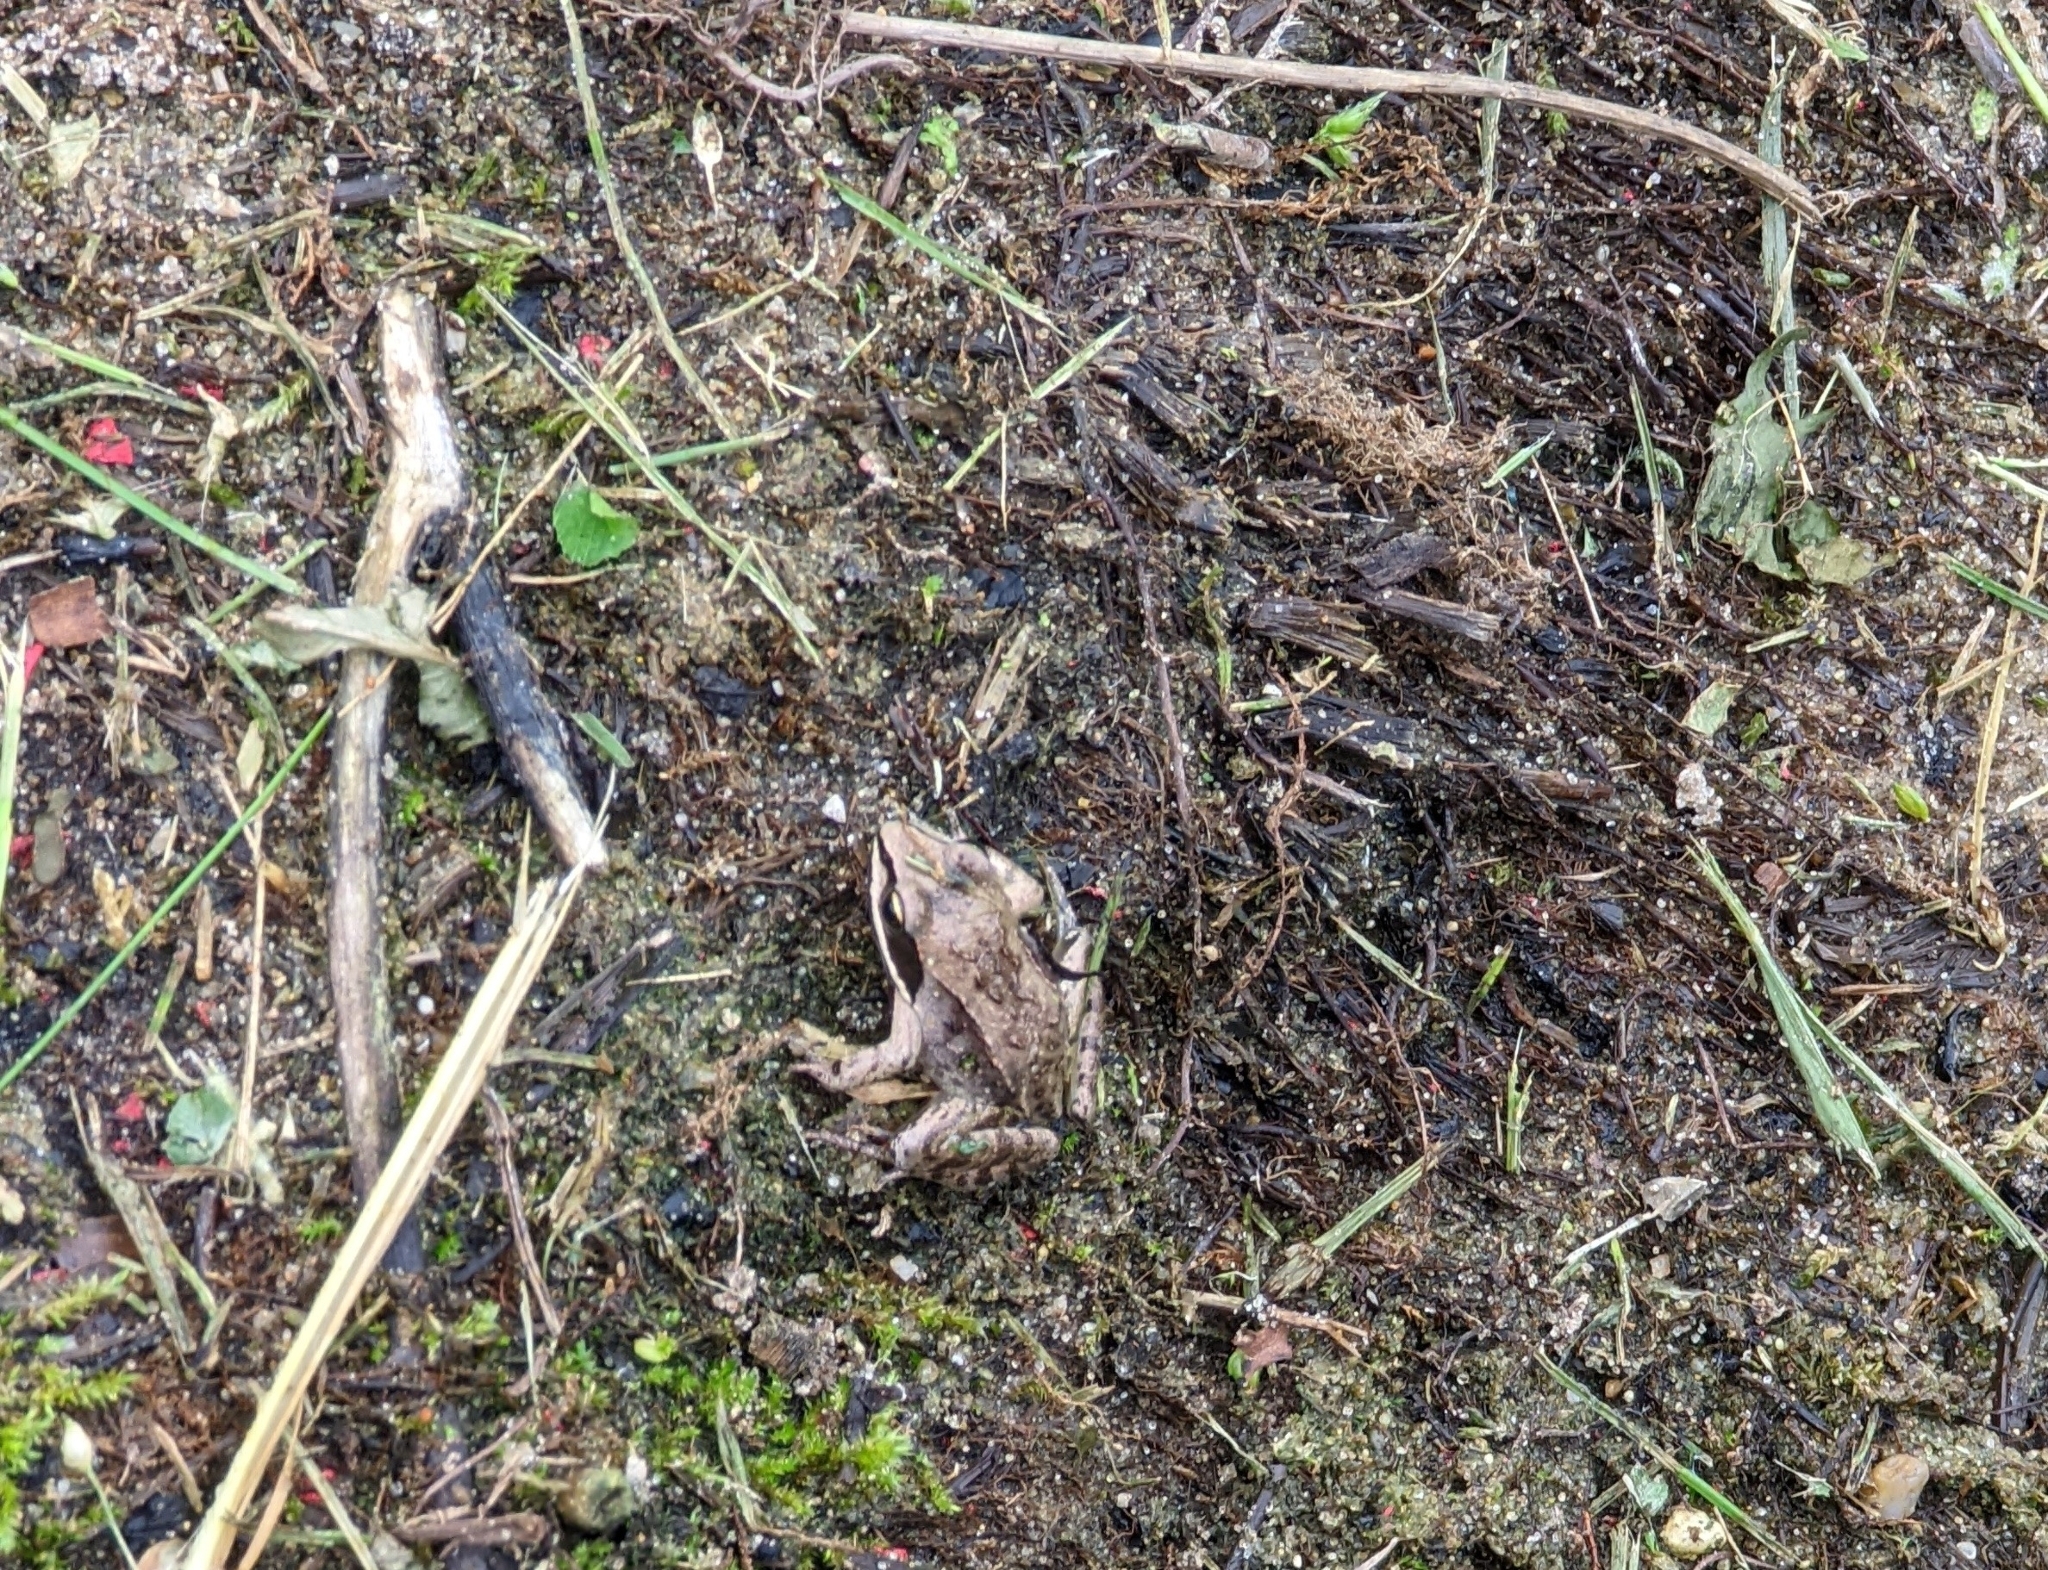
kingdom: Animalia
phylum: Chordata
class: Amphibia
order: Anura
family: Ranidae
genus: Lithobates
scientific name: Lithobates sylvaticus
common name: Wood frog
